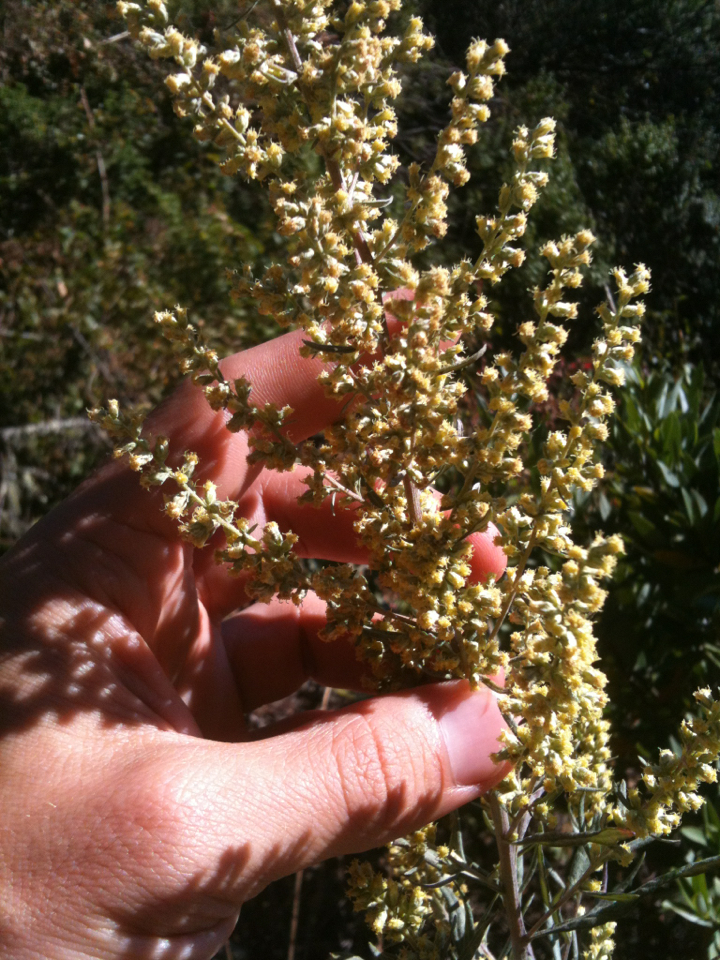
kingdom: Plantae
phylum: Tracheophyta
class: Magnoliopsida
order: Asterales
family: Asteraceae
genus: Artemisia
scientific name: Artemisia douglasiana
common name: Northwest mugwort
